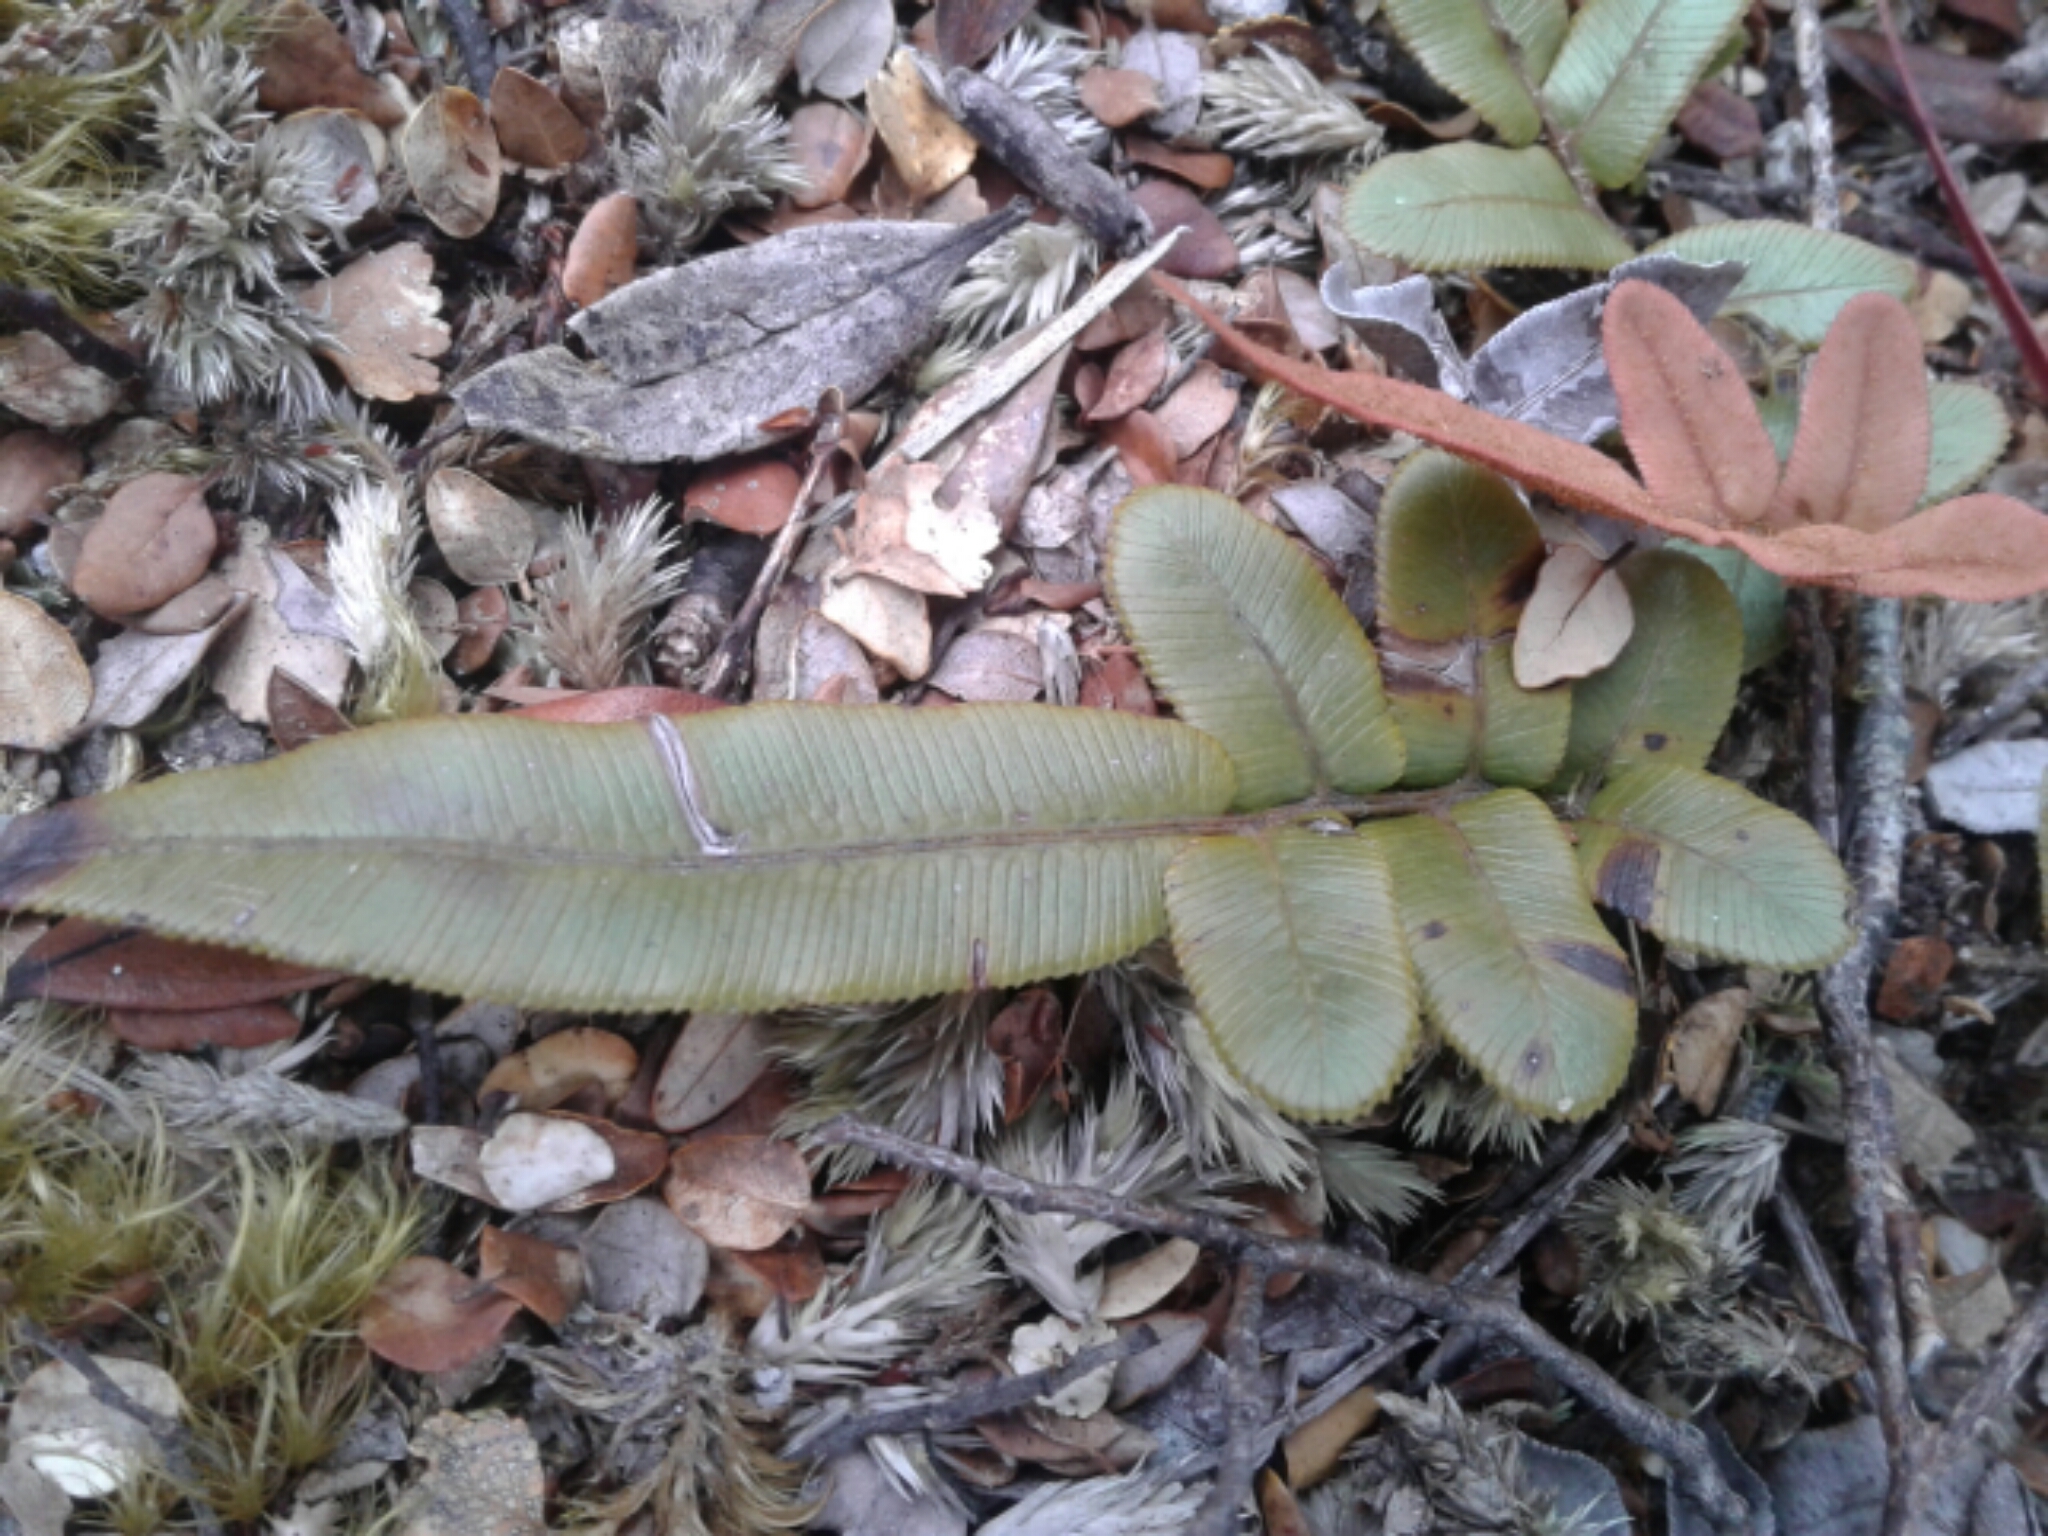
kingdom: Plantae
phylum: Tracheophyta
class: Polypodiopsida
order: Polypodiales
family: Blechnaceae
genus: Parablechnum
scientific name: Parablechnum procerum
